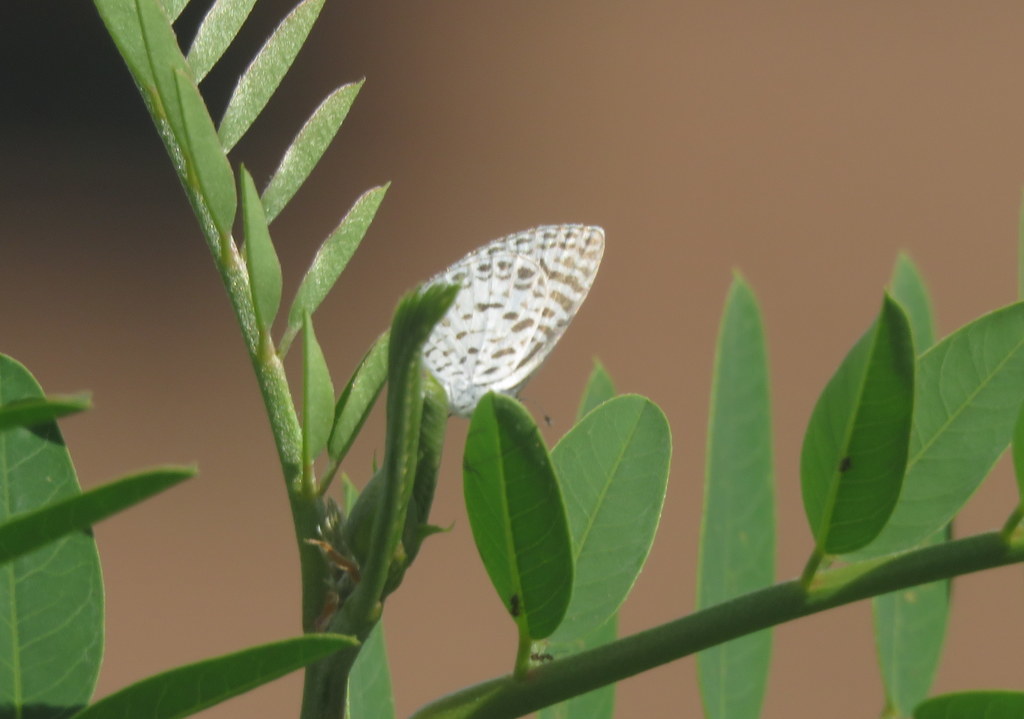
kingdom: Animalia
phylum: Arthropoda
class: Insecta
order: Lepidoptera
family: Lycaenidae
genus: Leptotes
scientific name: Leptotes cassius
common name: Cassius blue
